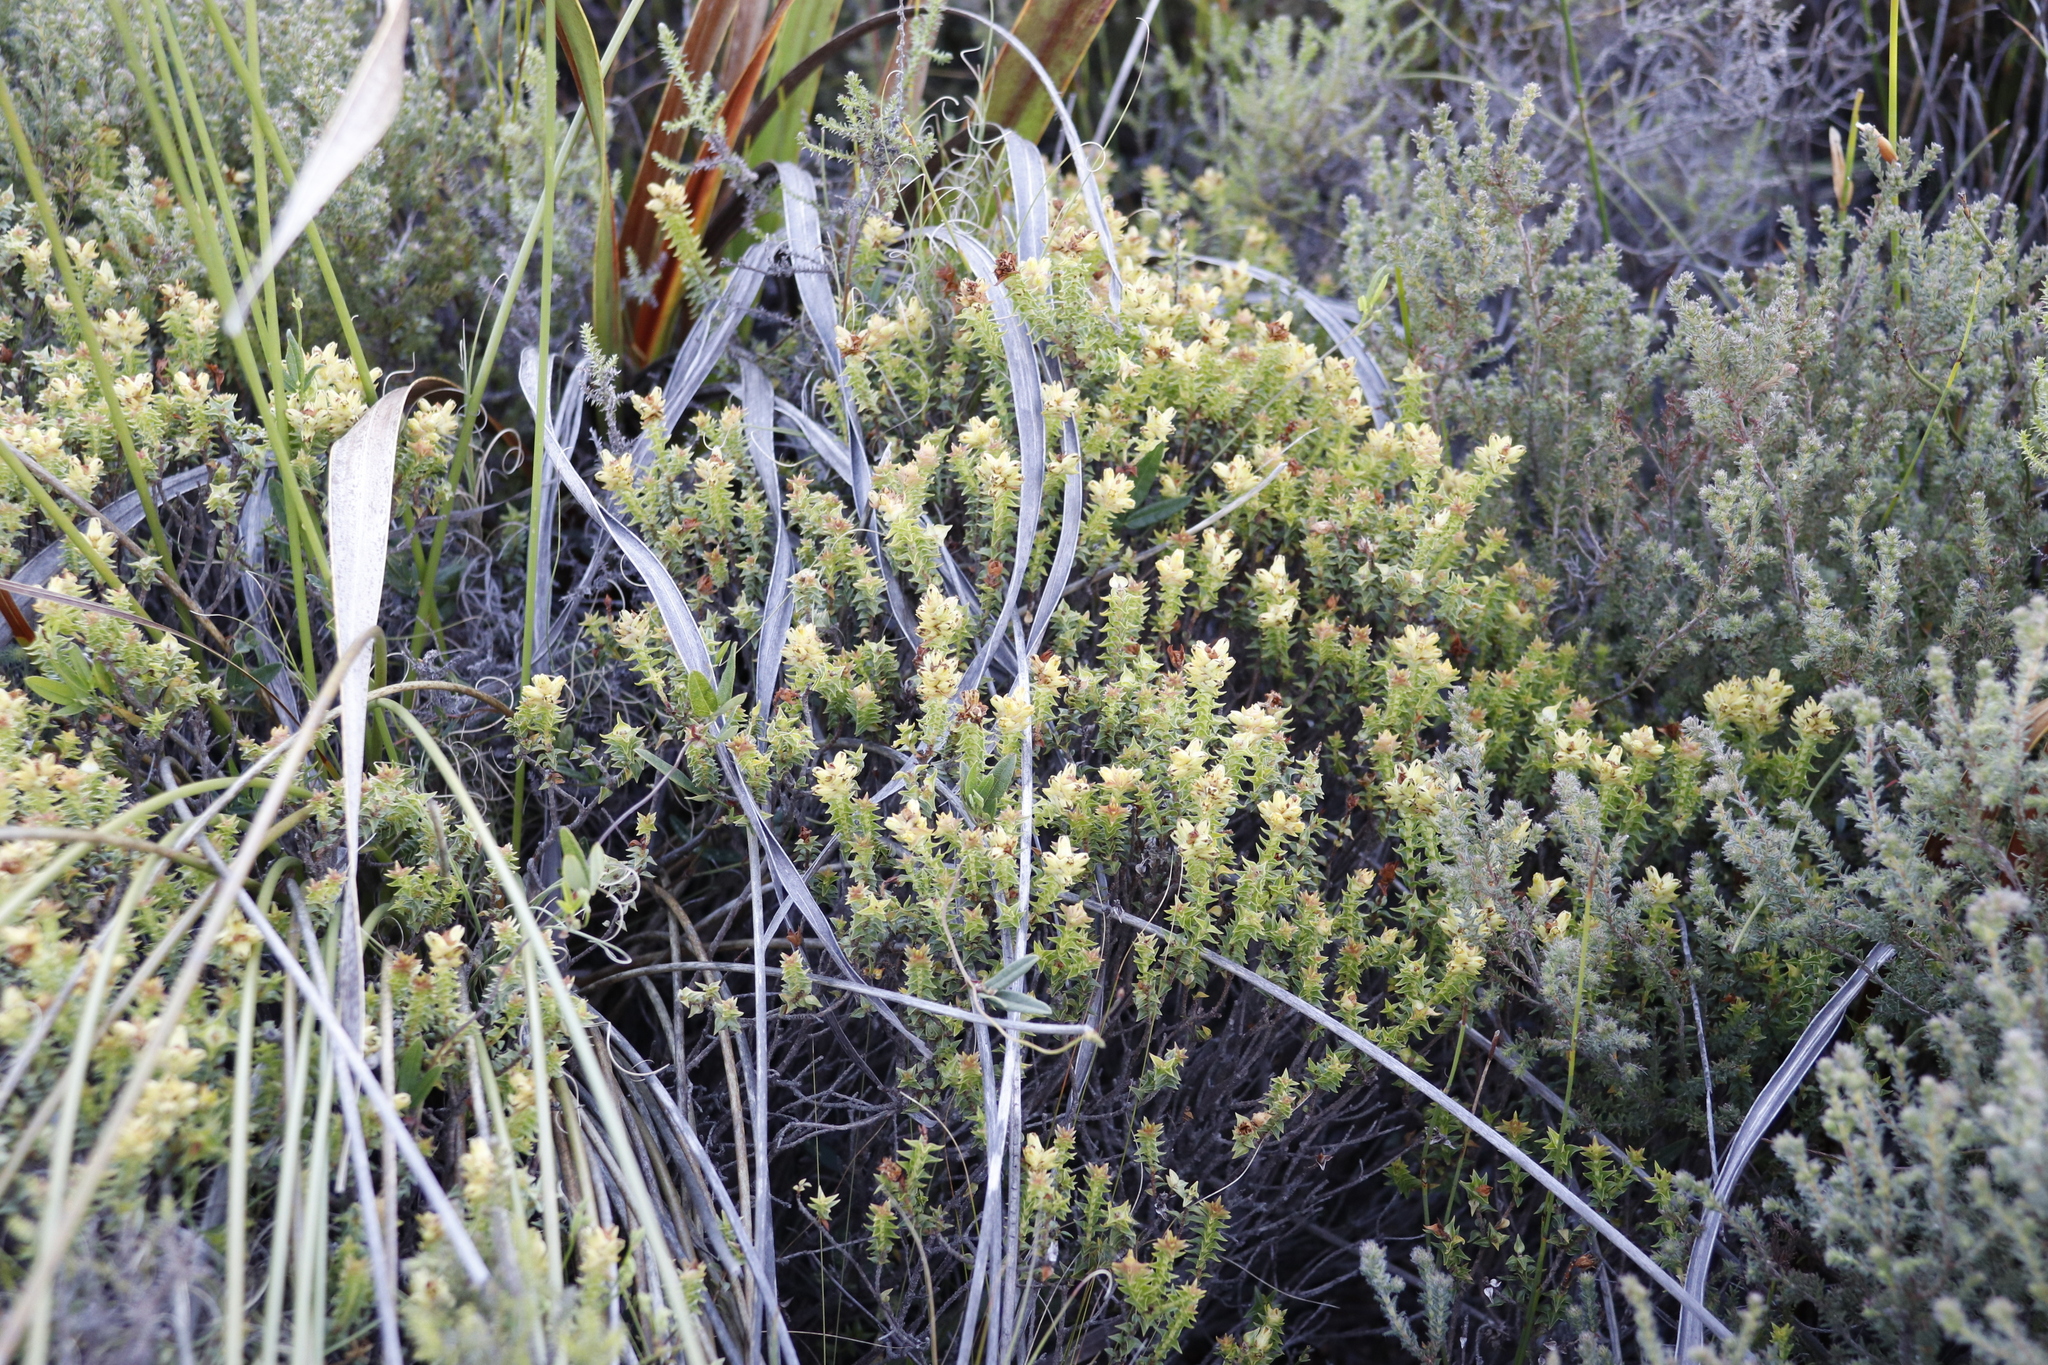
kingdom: Plantae
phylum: Tracheophyta
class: Magnoliopsida
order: Myrtales
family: Penaeaceae
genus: Penaea
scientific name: Penaea mucronata
